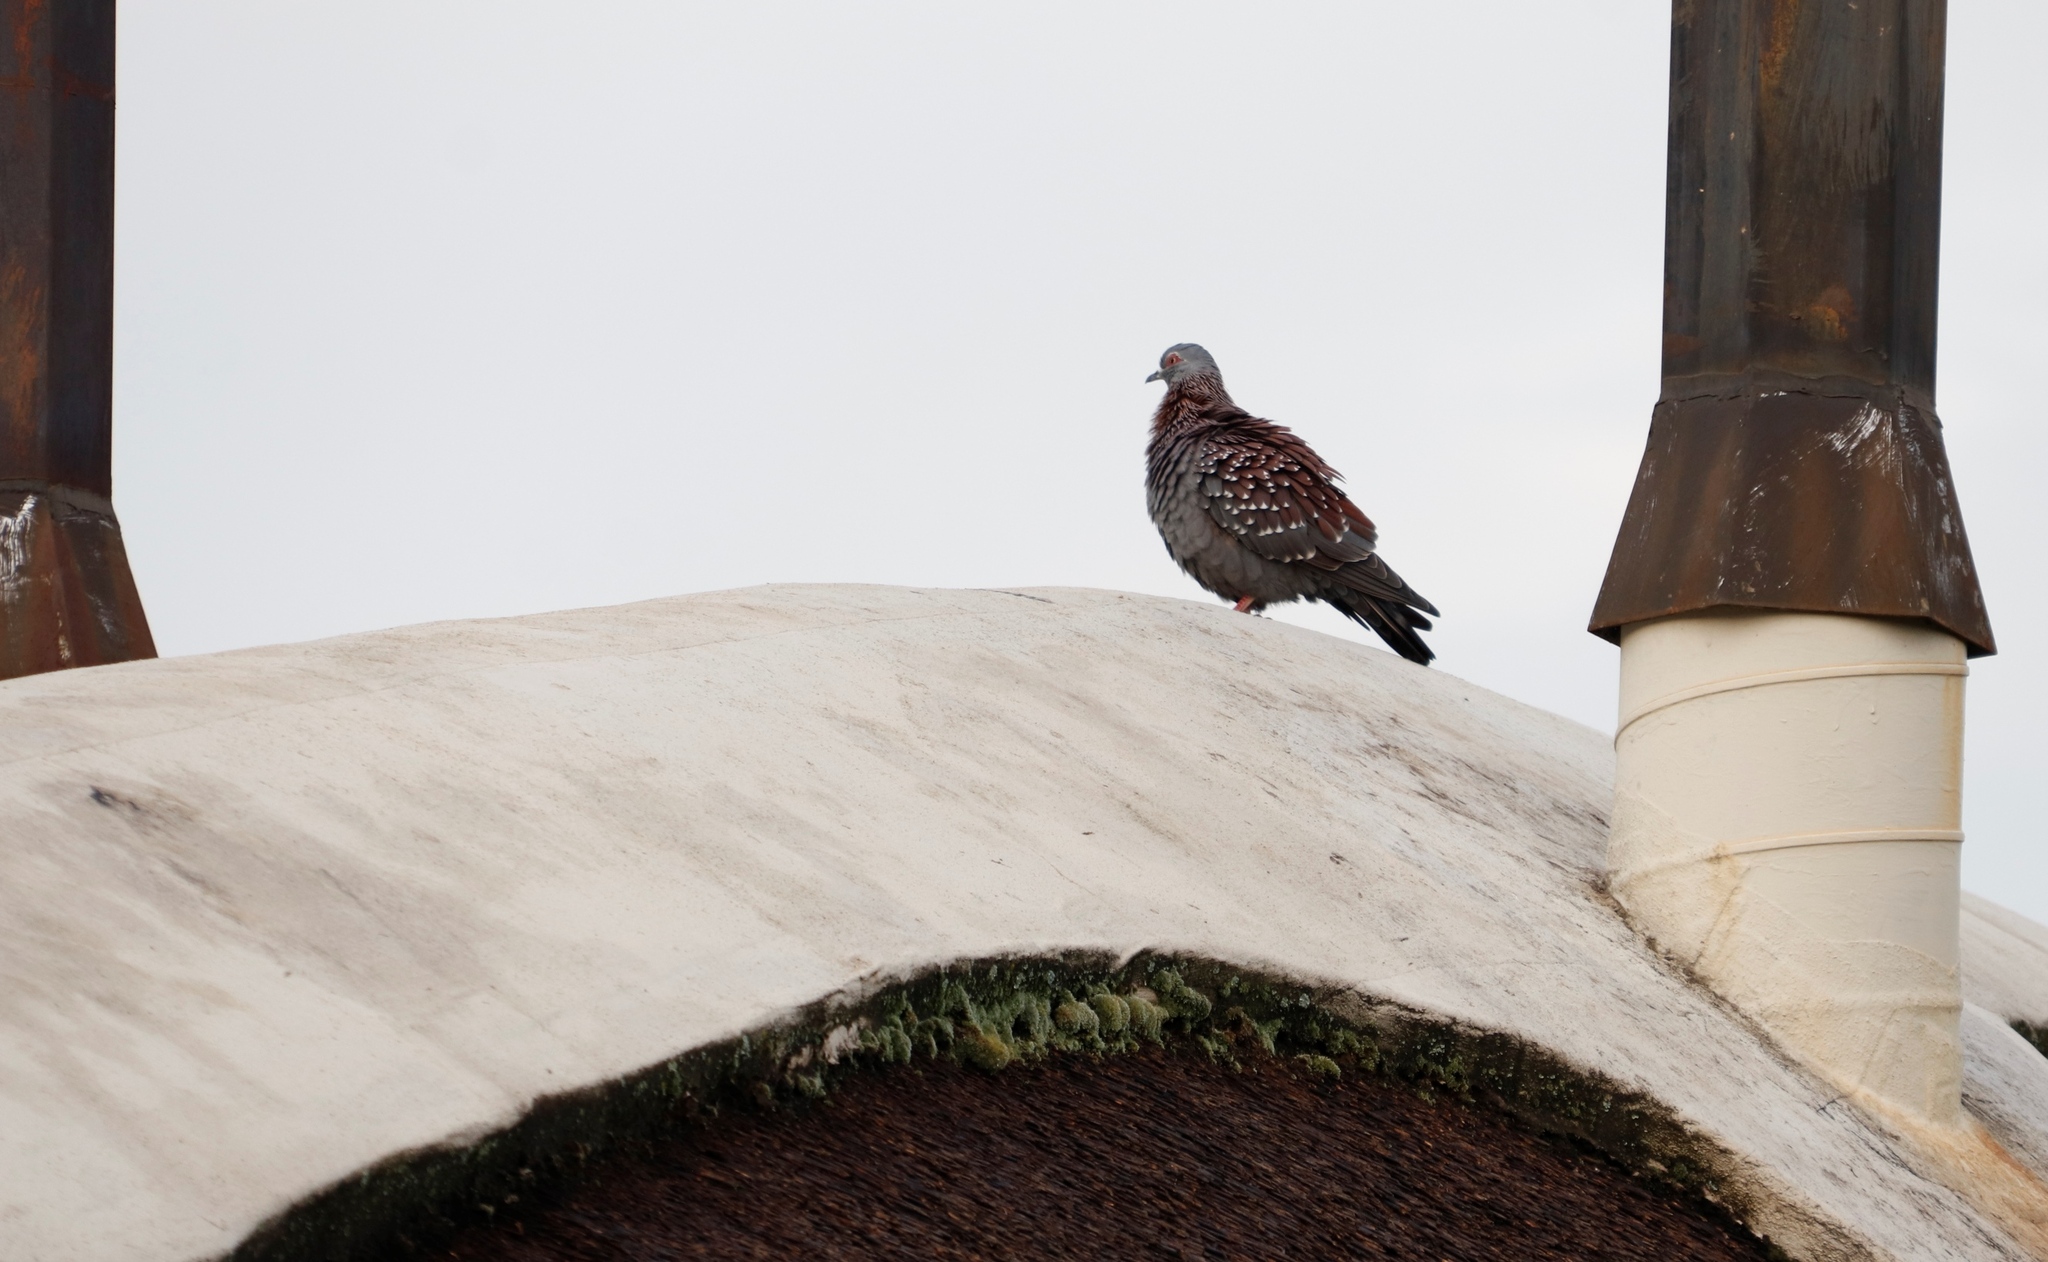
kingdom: Animalia
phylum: Chordata
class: Aves
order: Columbiformes
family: Columbidae
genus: Columba
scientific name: Columba guinea
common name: Speckled pigeon
